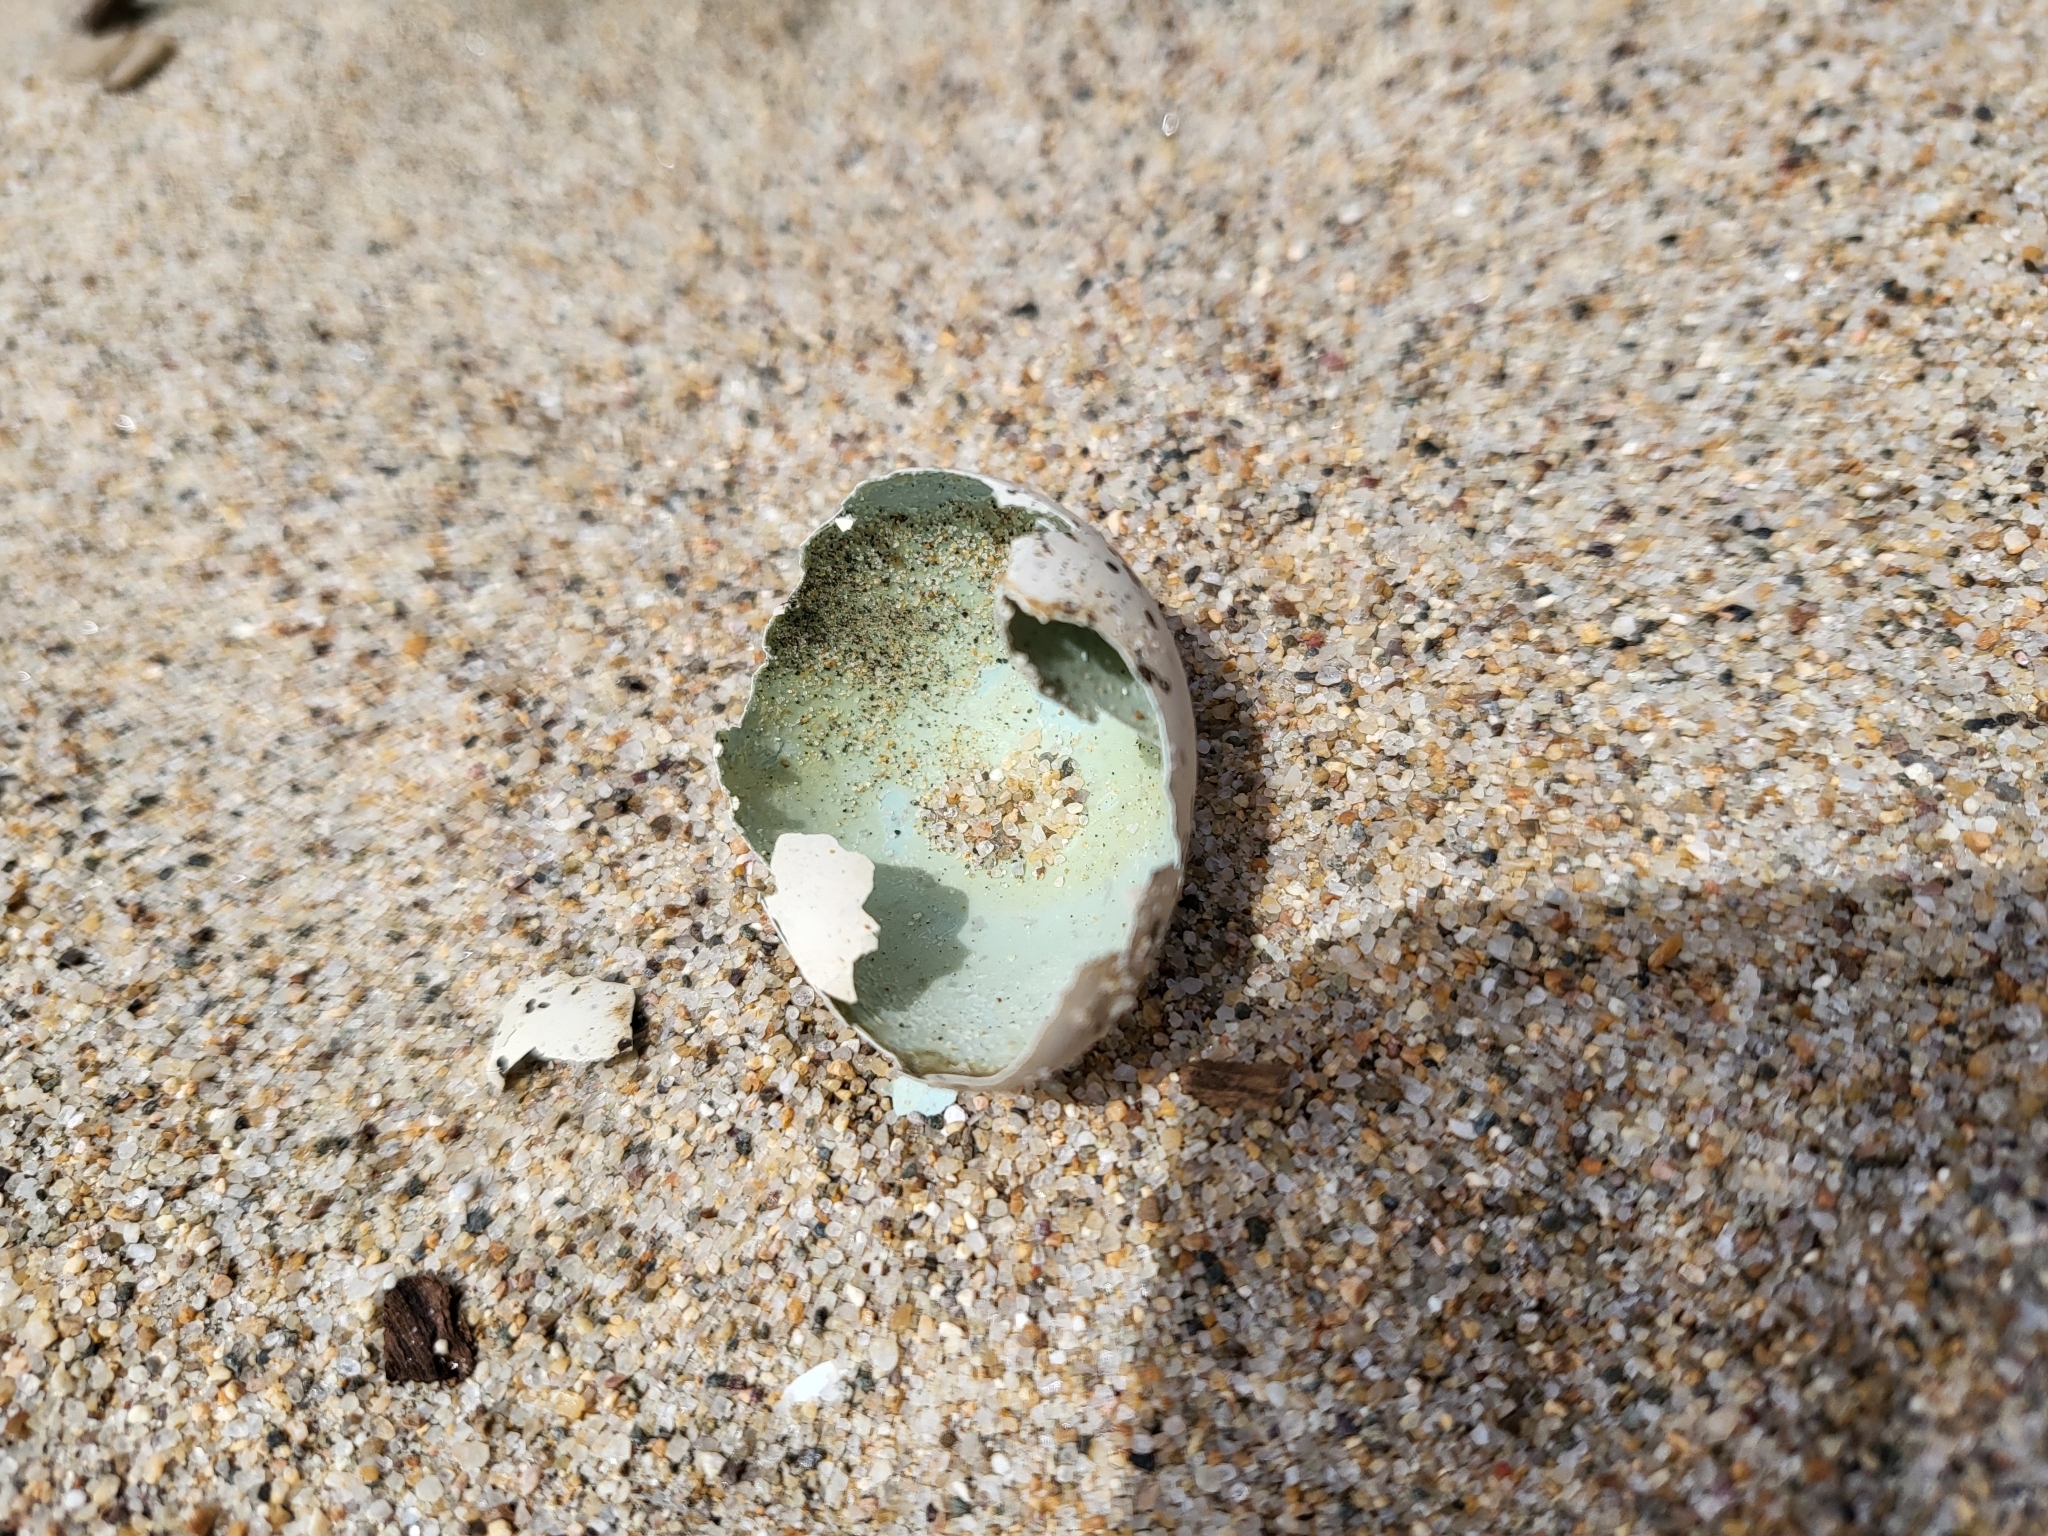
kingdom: Animalia
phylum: Chordata
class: Aves
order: Charadriiformes
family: Charadriidae
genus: Anarhynchus
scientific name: Anarhynchus
